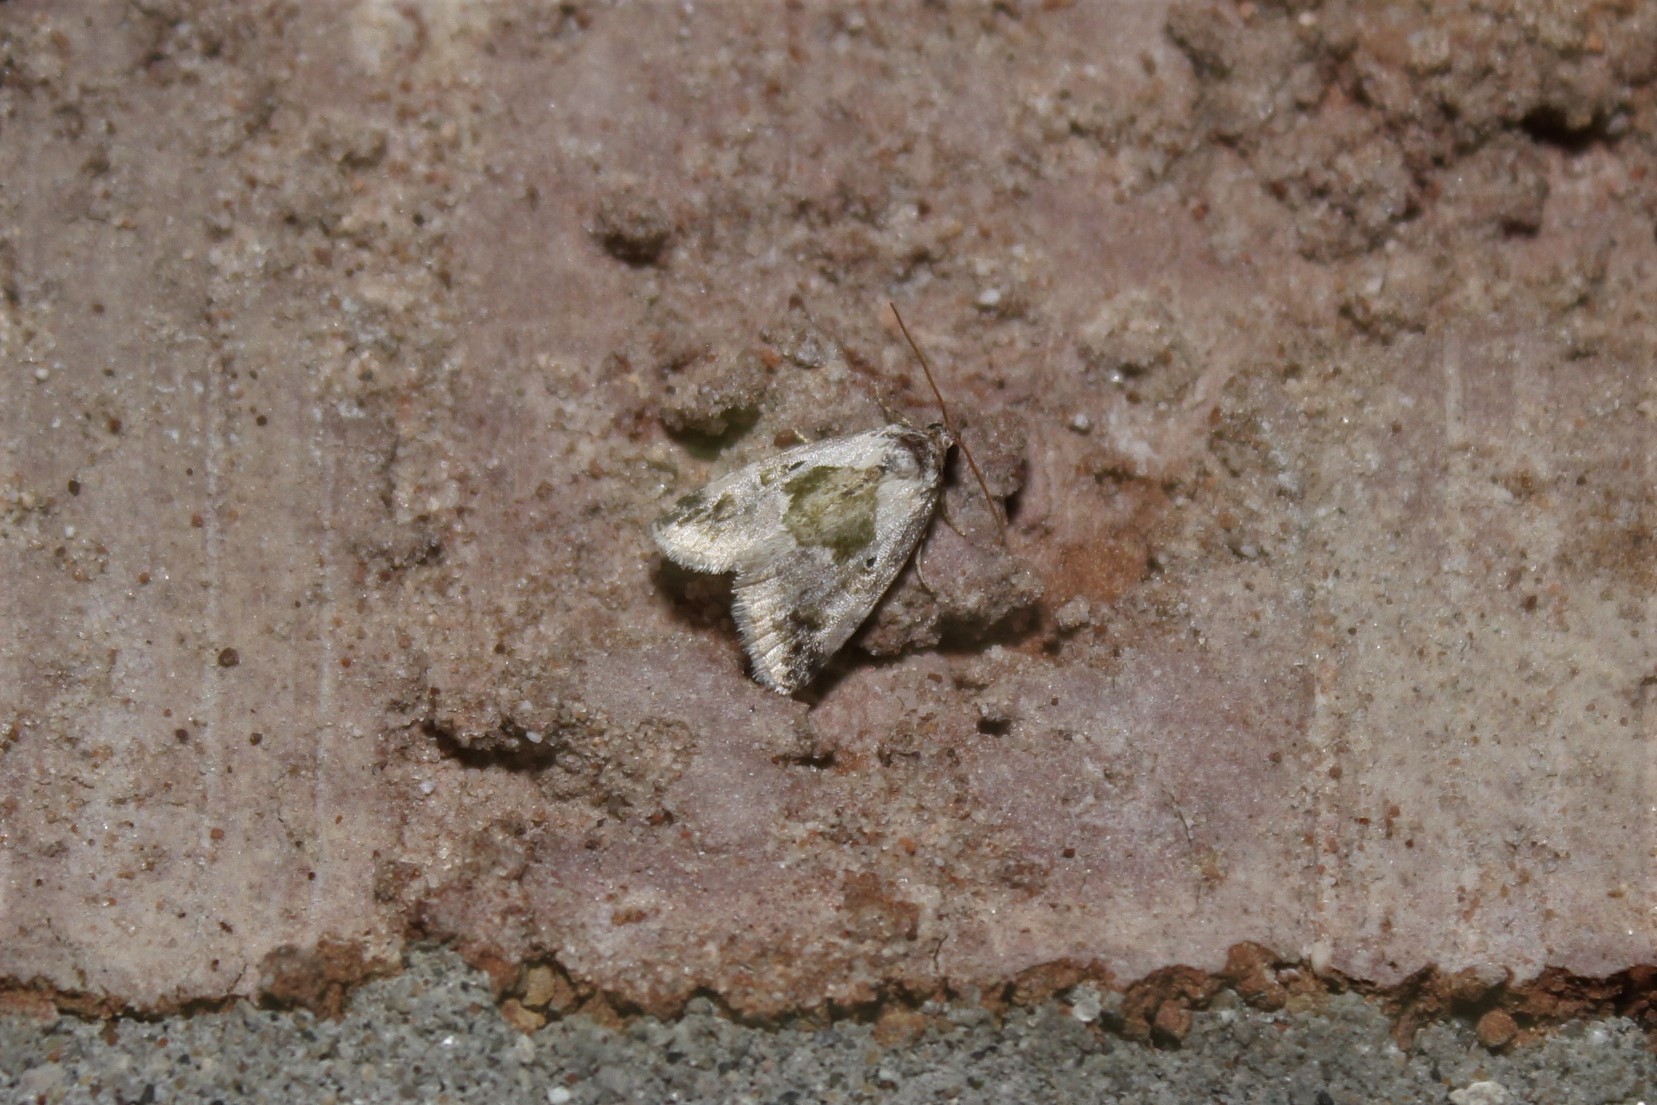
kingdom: Animalia
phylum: Arthropoda
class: Insecta
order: Lepidoptera
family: Noctuidae
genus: Maliattha
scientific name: Maliattha synochitis
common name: Black-dotted glyph
